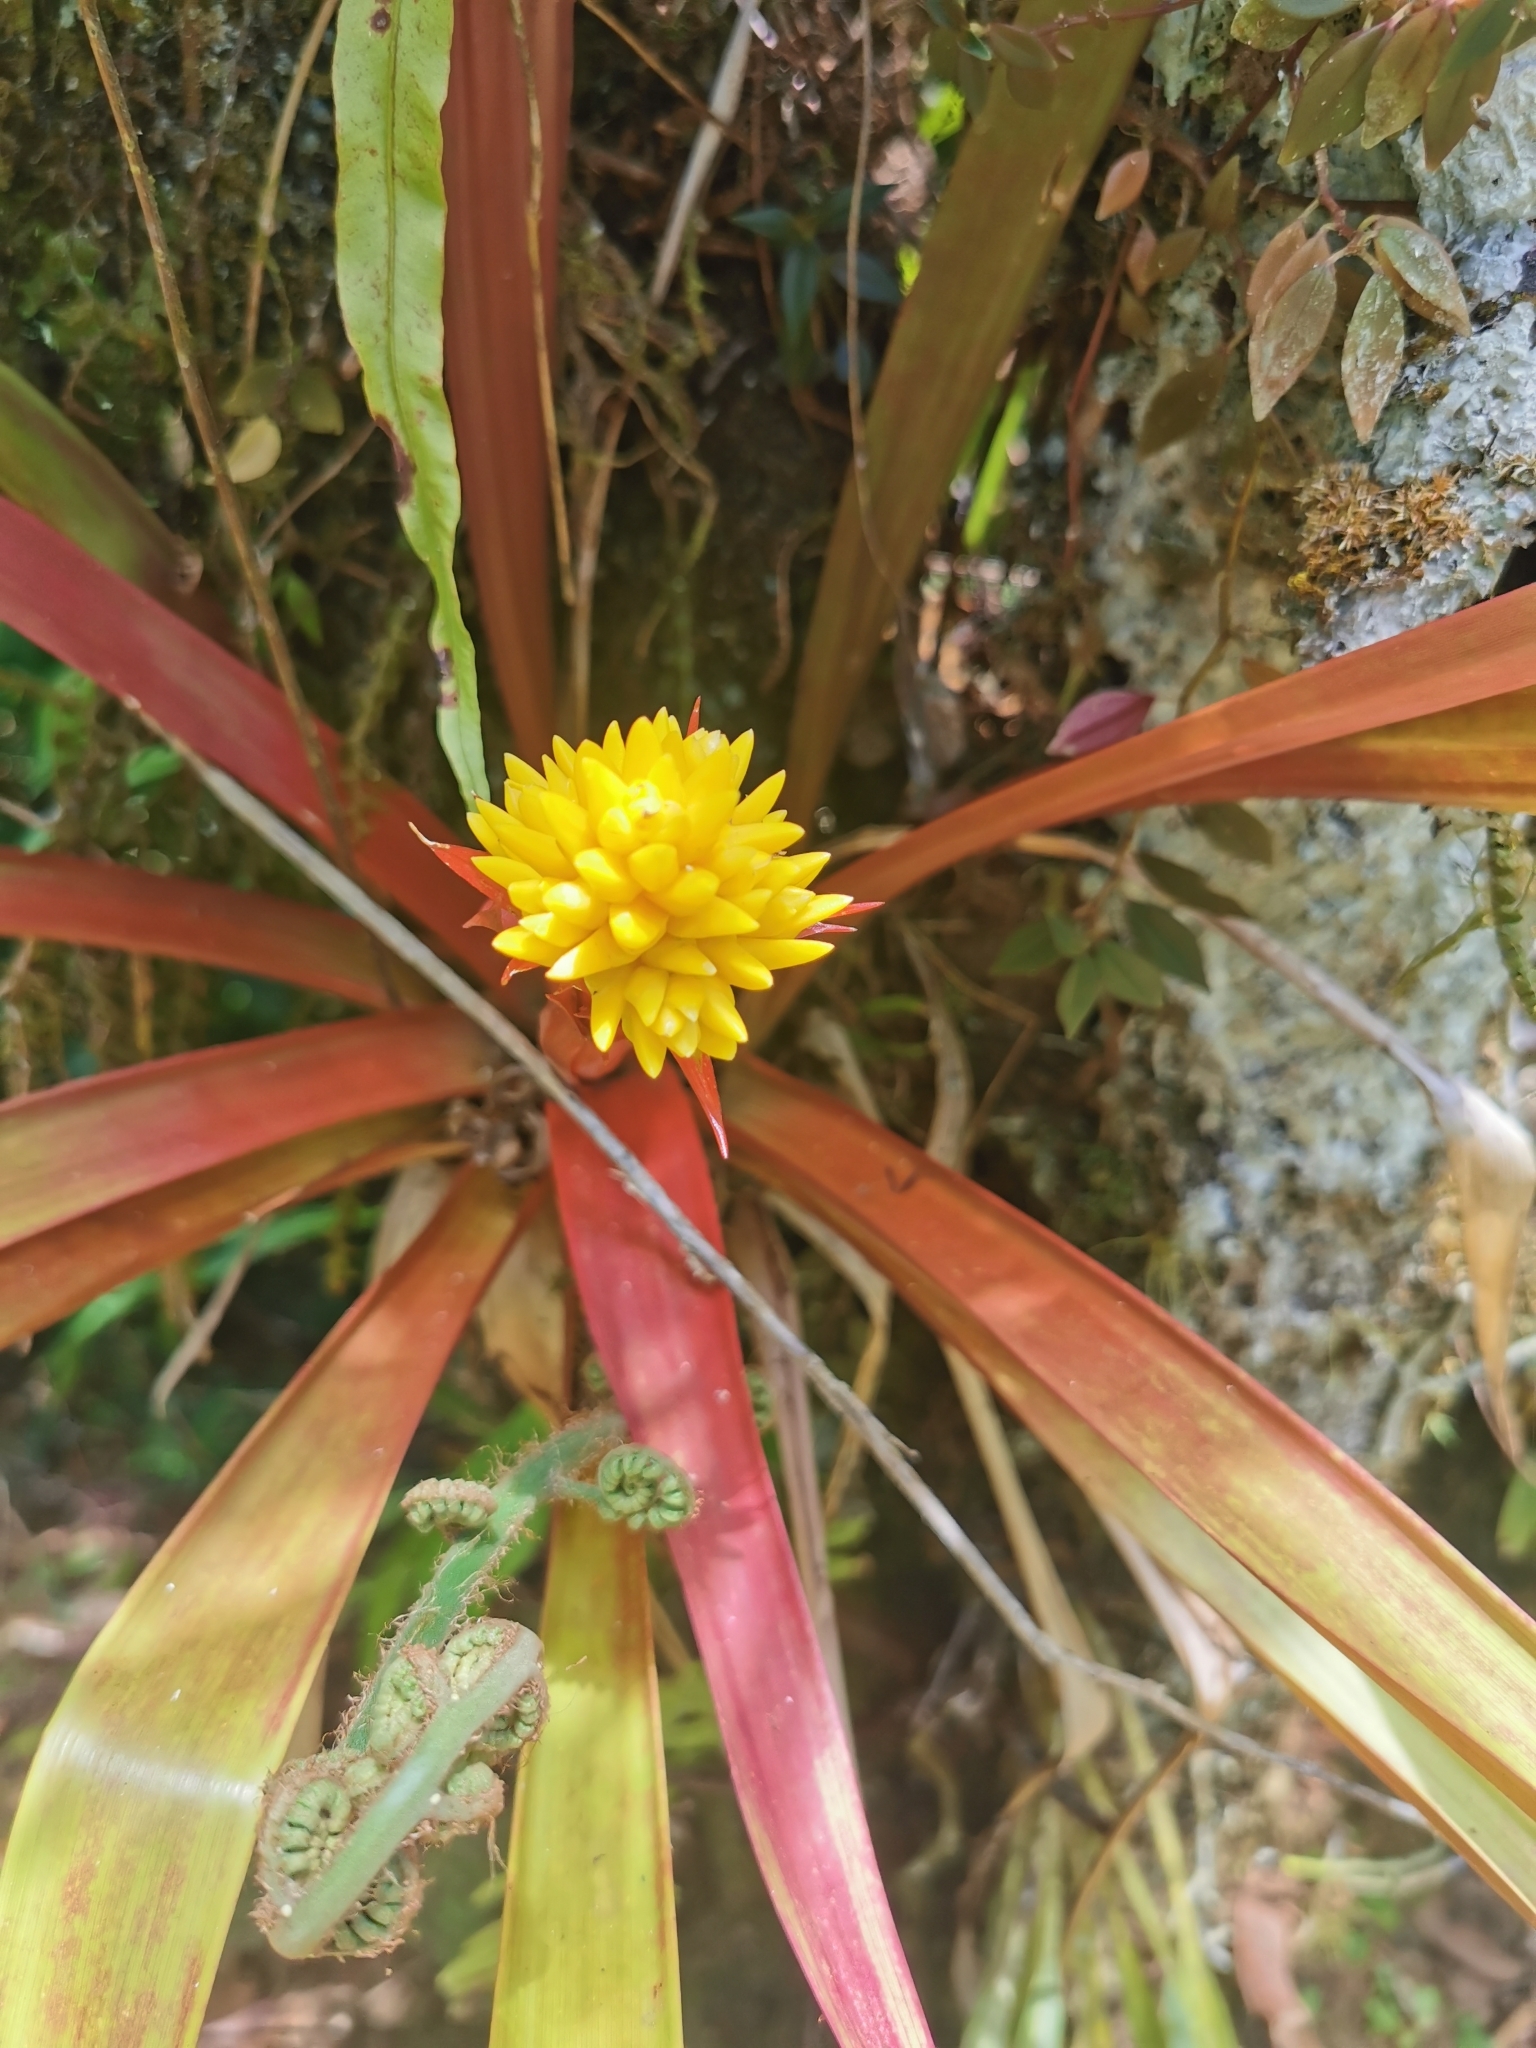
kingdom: Plantae
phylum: Tracheophyta
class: Liliopsida
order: Poales
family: Bromeliaceae
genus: Guzmania
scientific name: Guzmania zahnii
